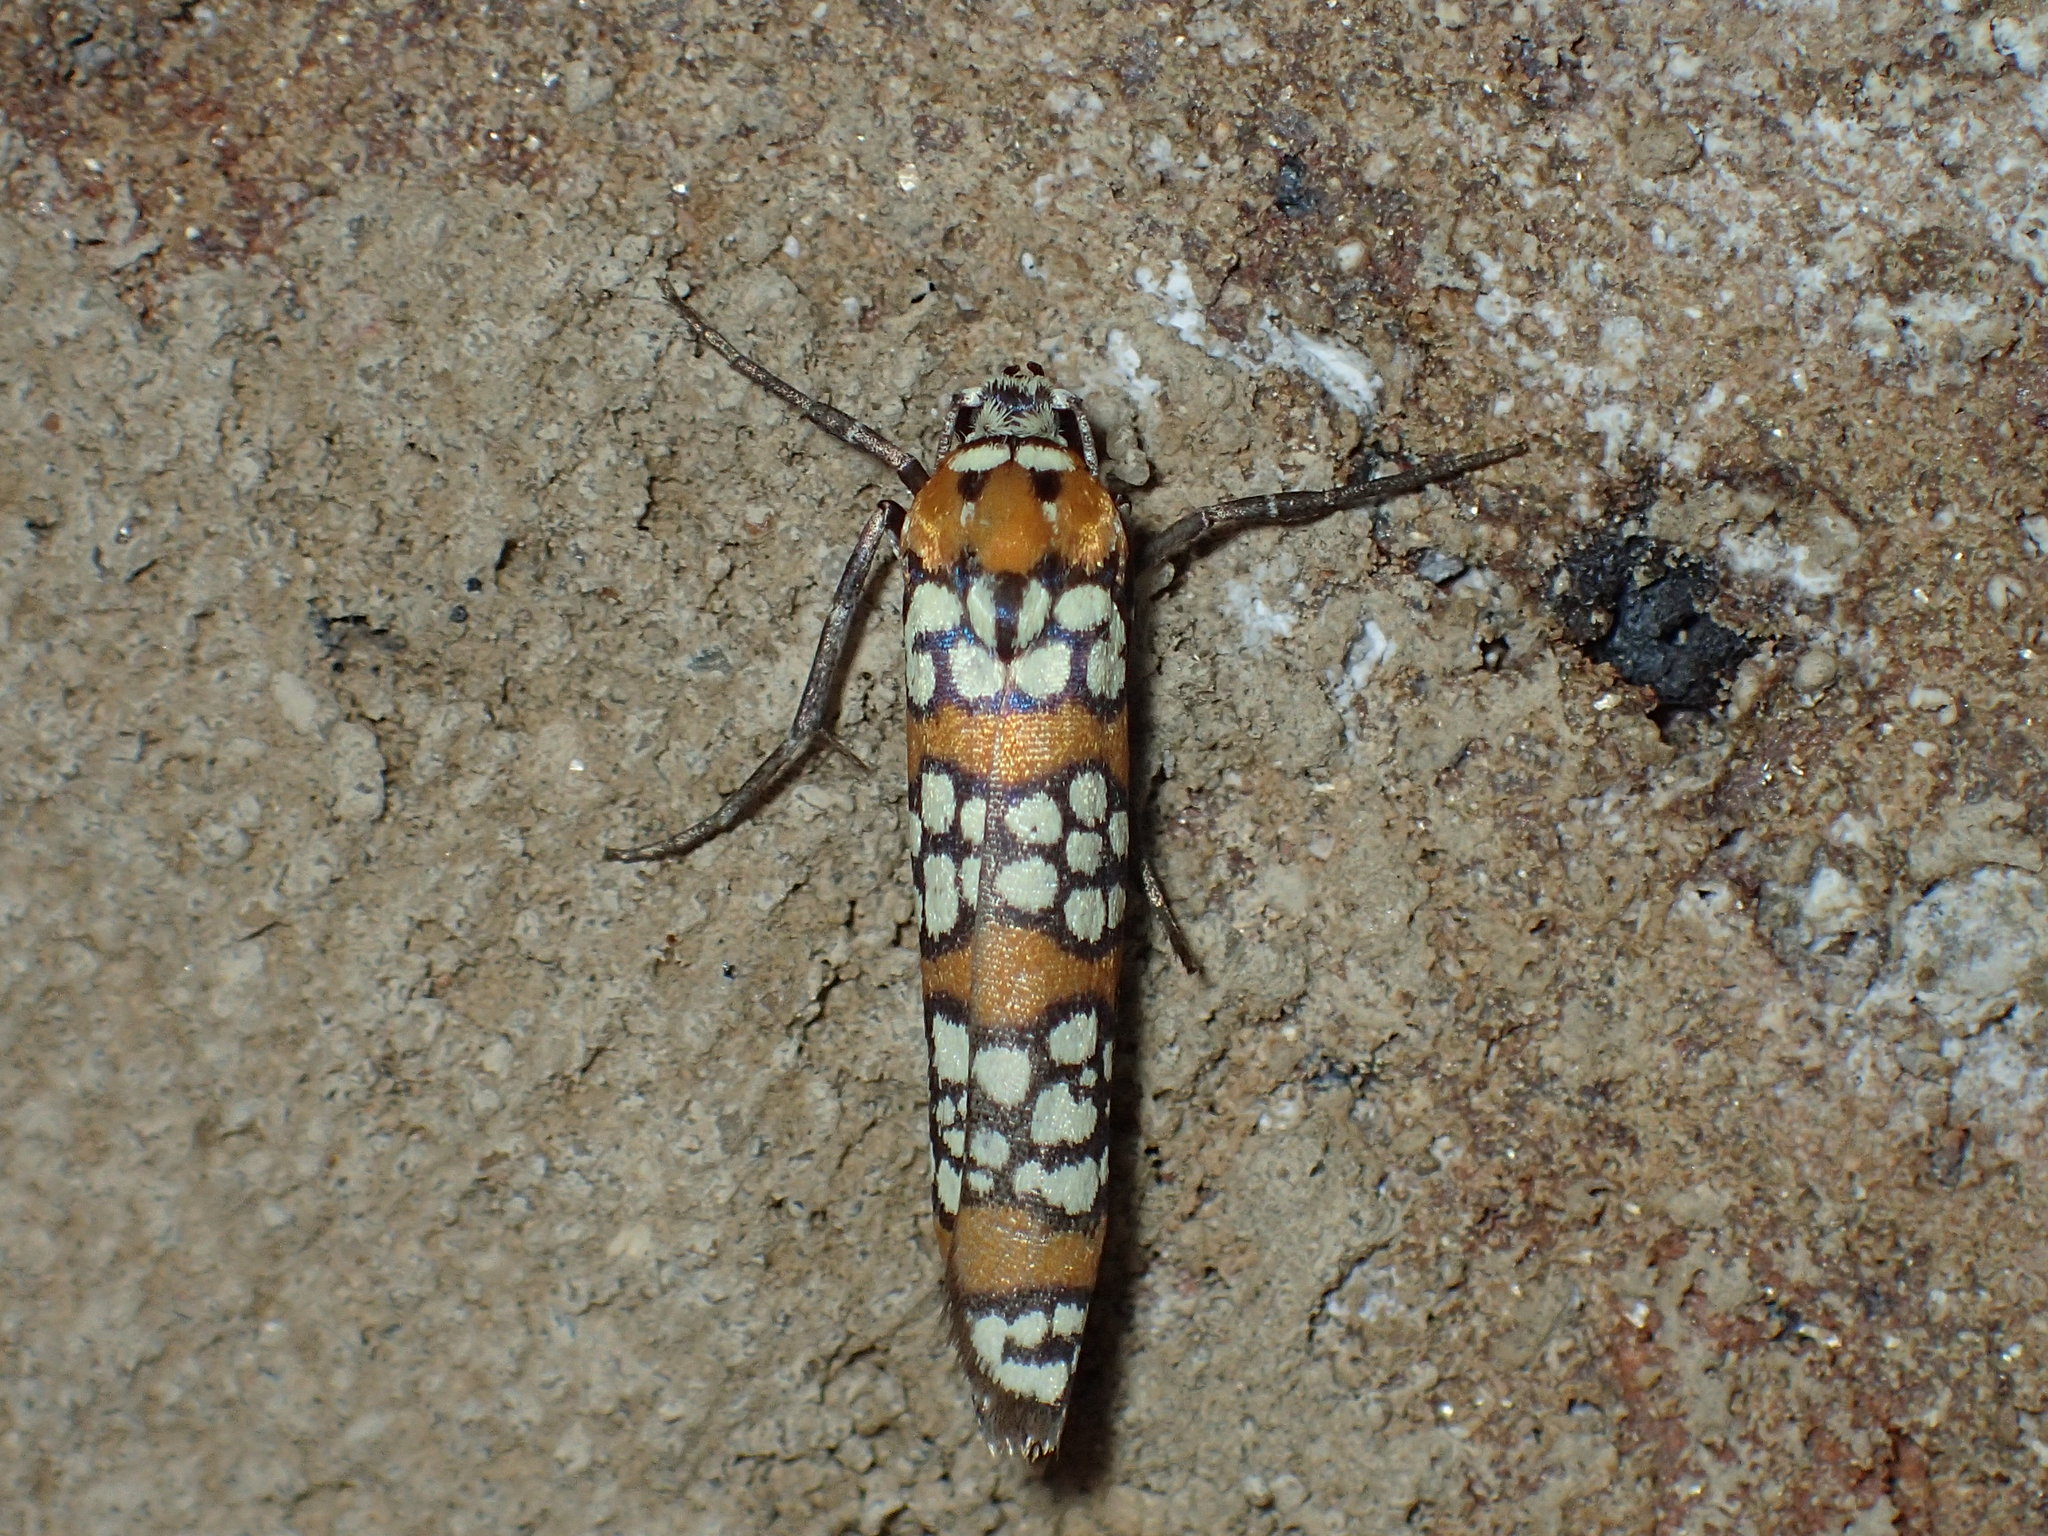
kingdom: Animalia
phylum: Arthropoda
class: Insecta
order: Lepidoptera
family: Attevidae
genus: Atteva
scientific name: Atteva punctella
